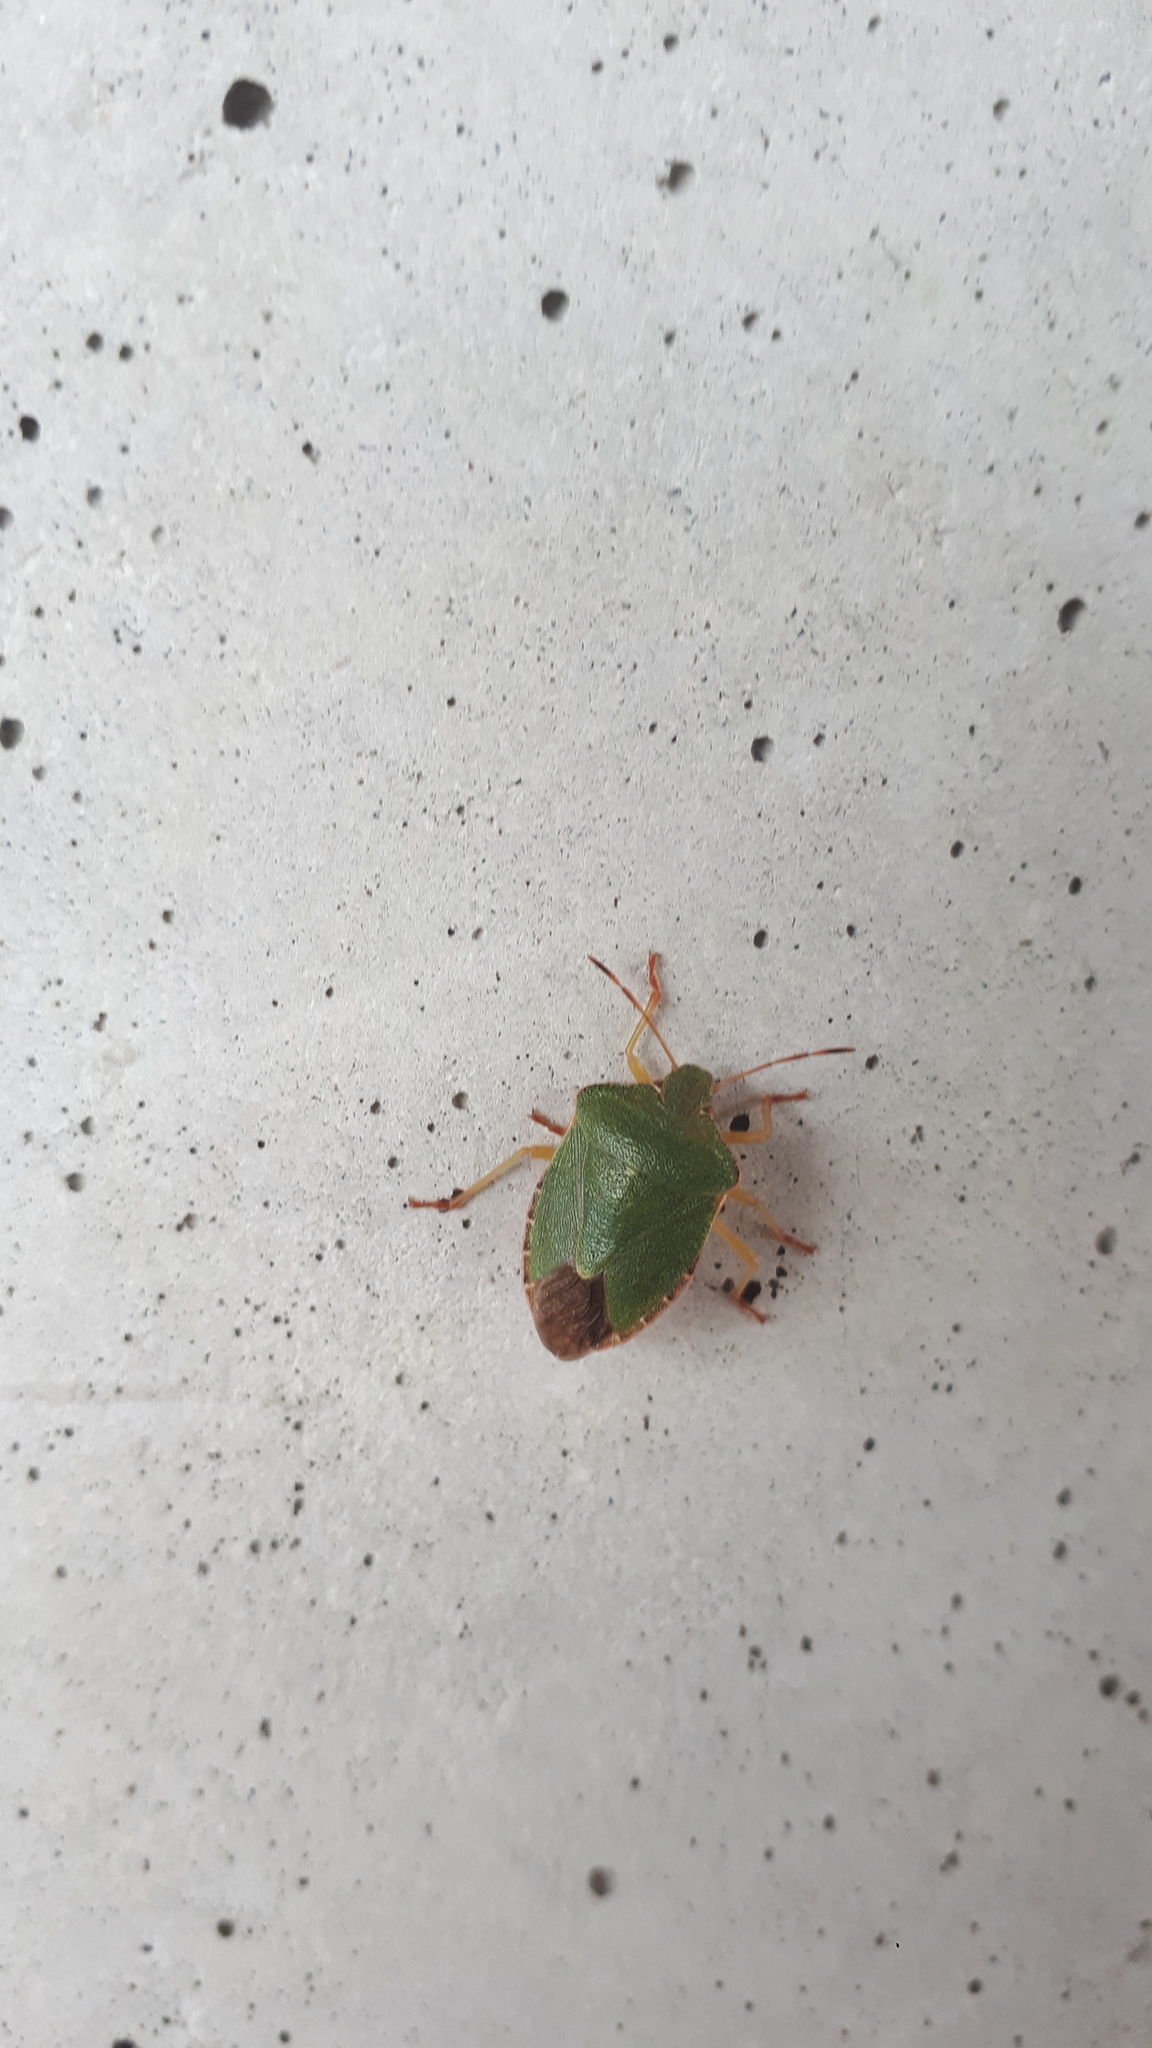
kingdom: Animalia
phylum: Arthropoda
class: Insecta
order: Hemiptera
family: Pentatomidae
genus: Palomena
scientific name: Palomena prasina
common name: Green shieldbug
